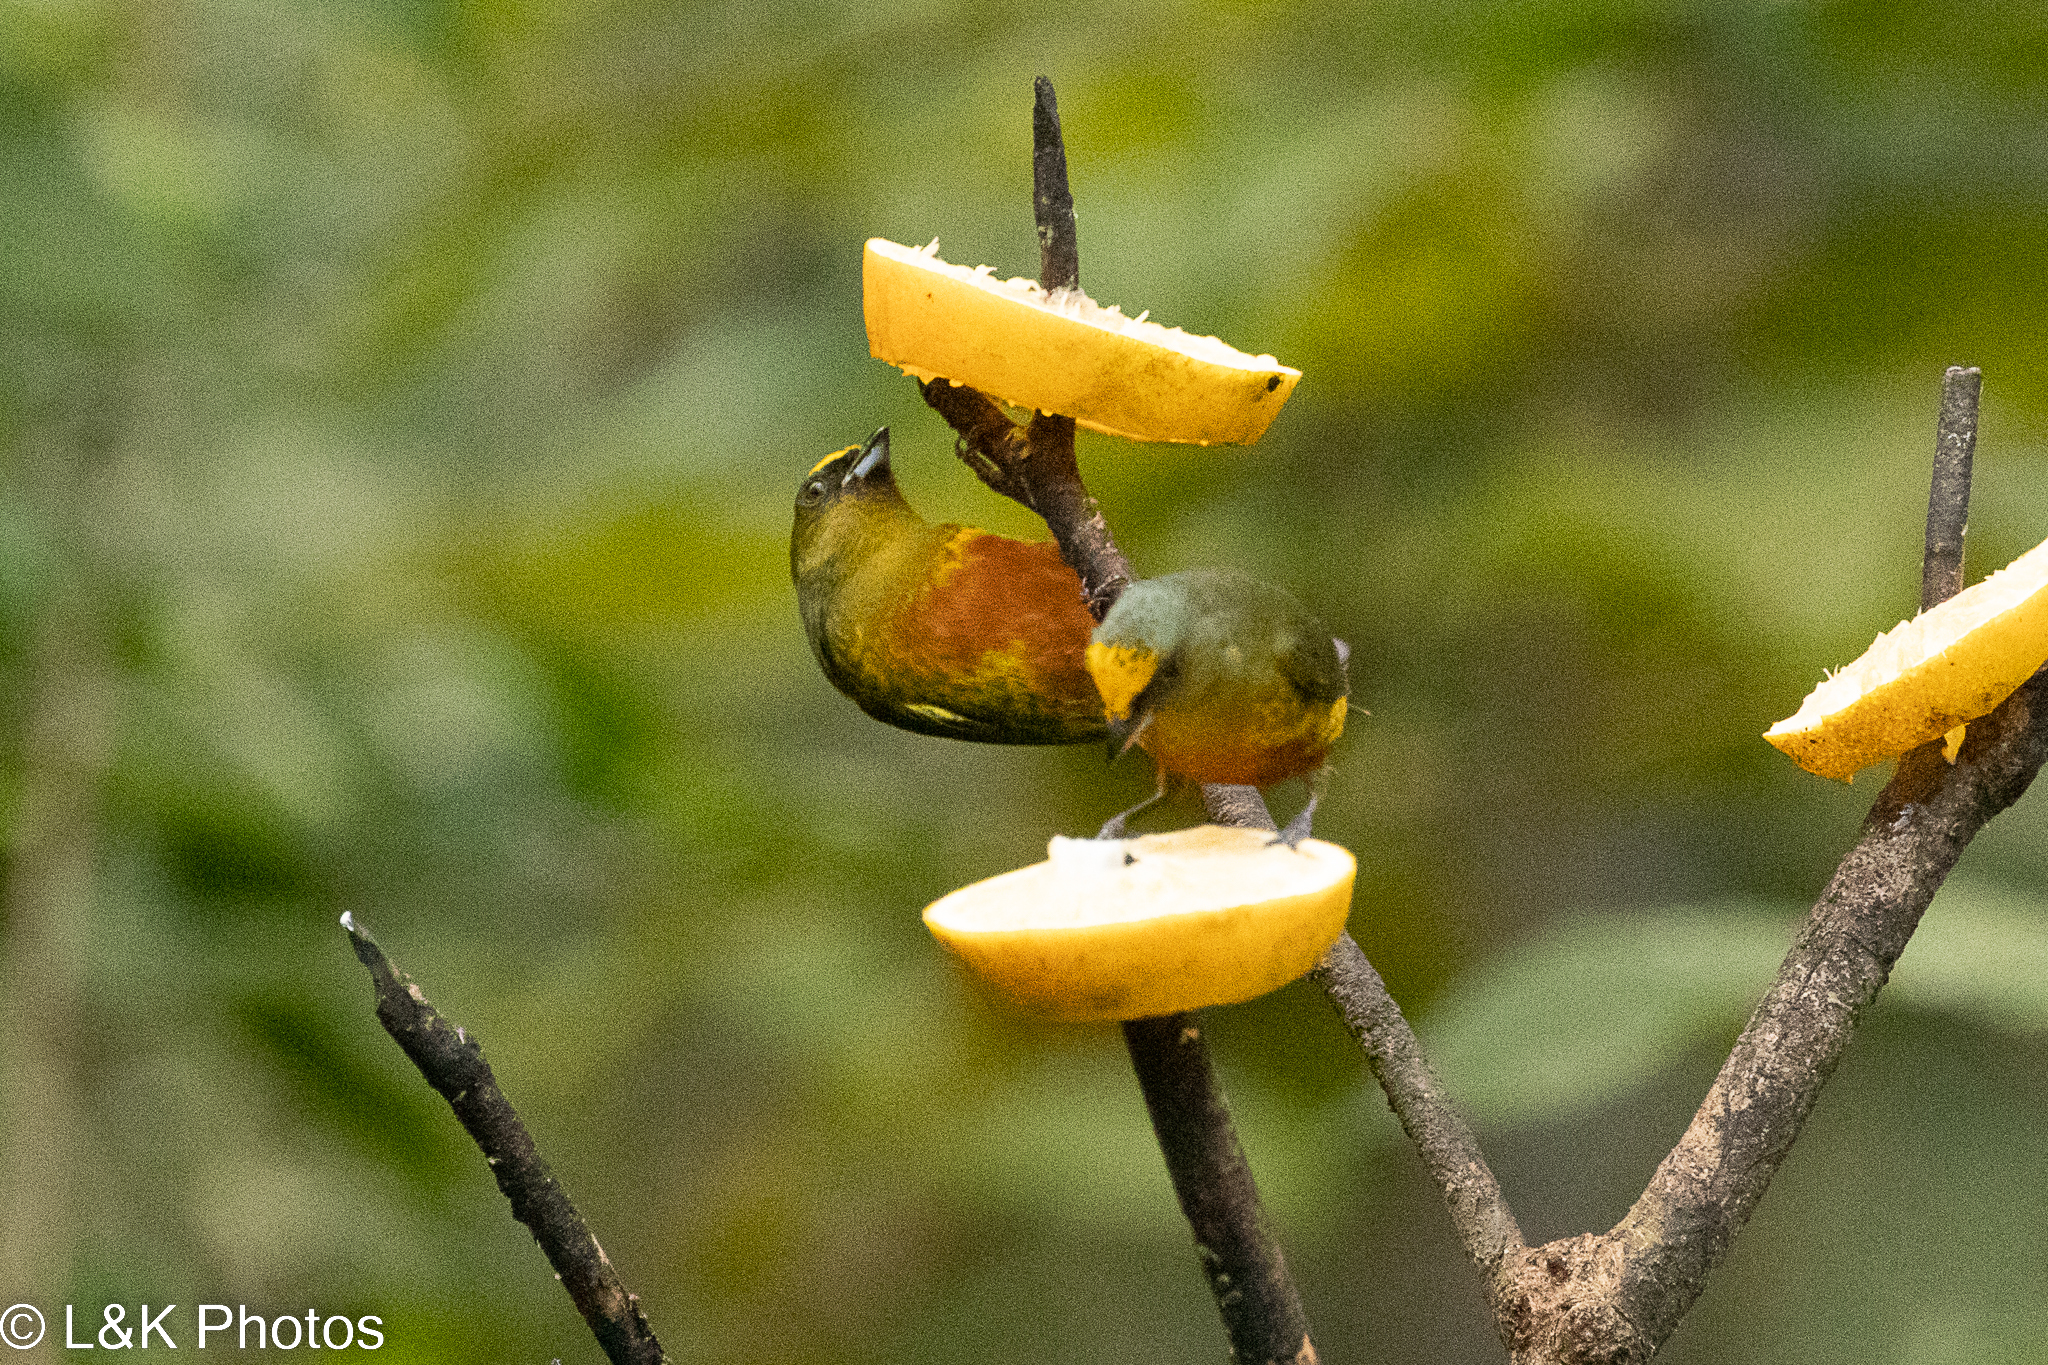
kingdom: Animalia
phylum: Chordata
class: Aves
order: Passeriformes
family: Fringillidae
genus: Euphonia
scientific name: Euphonia gouldi
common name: Olive-backed euphonia
